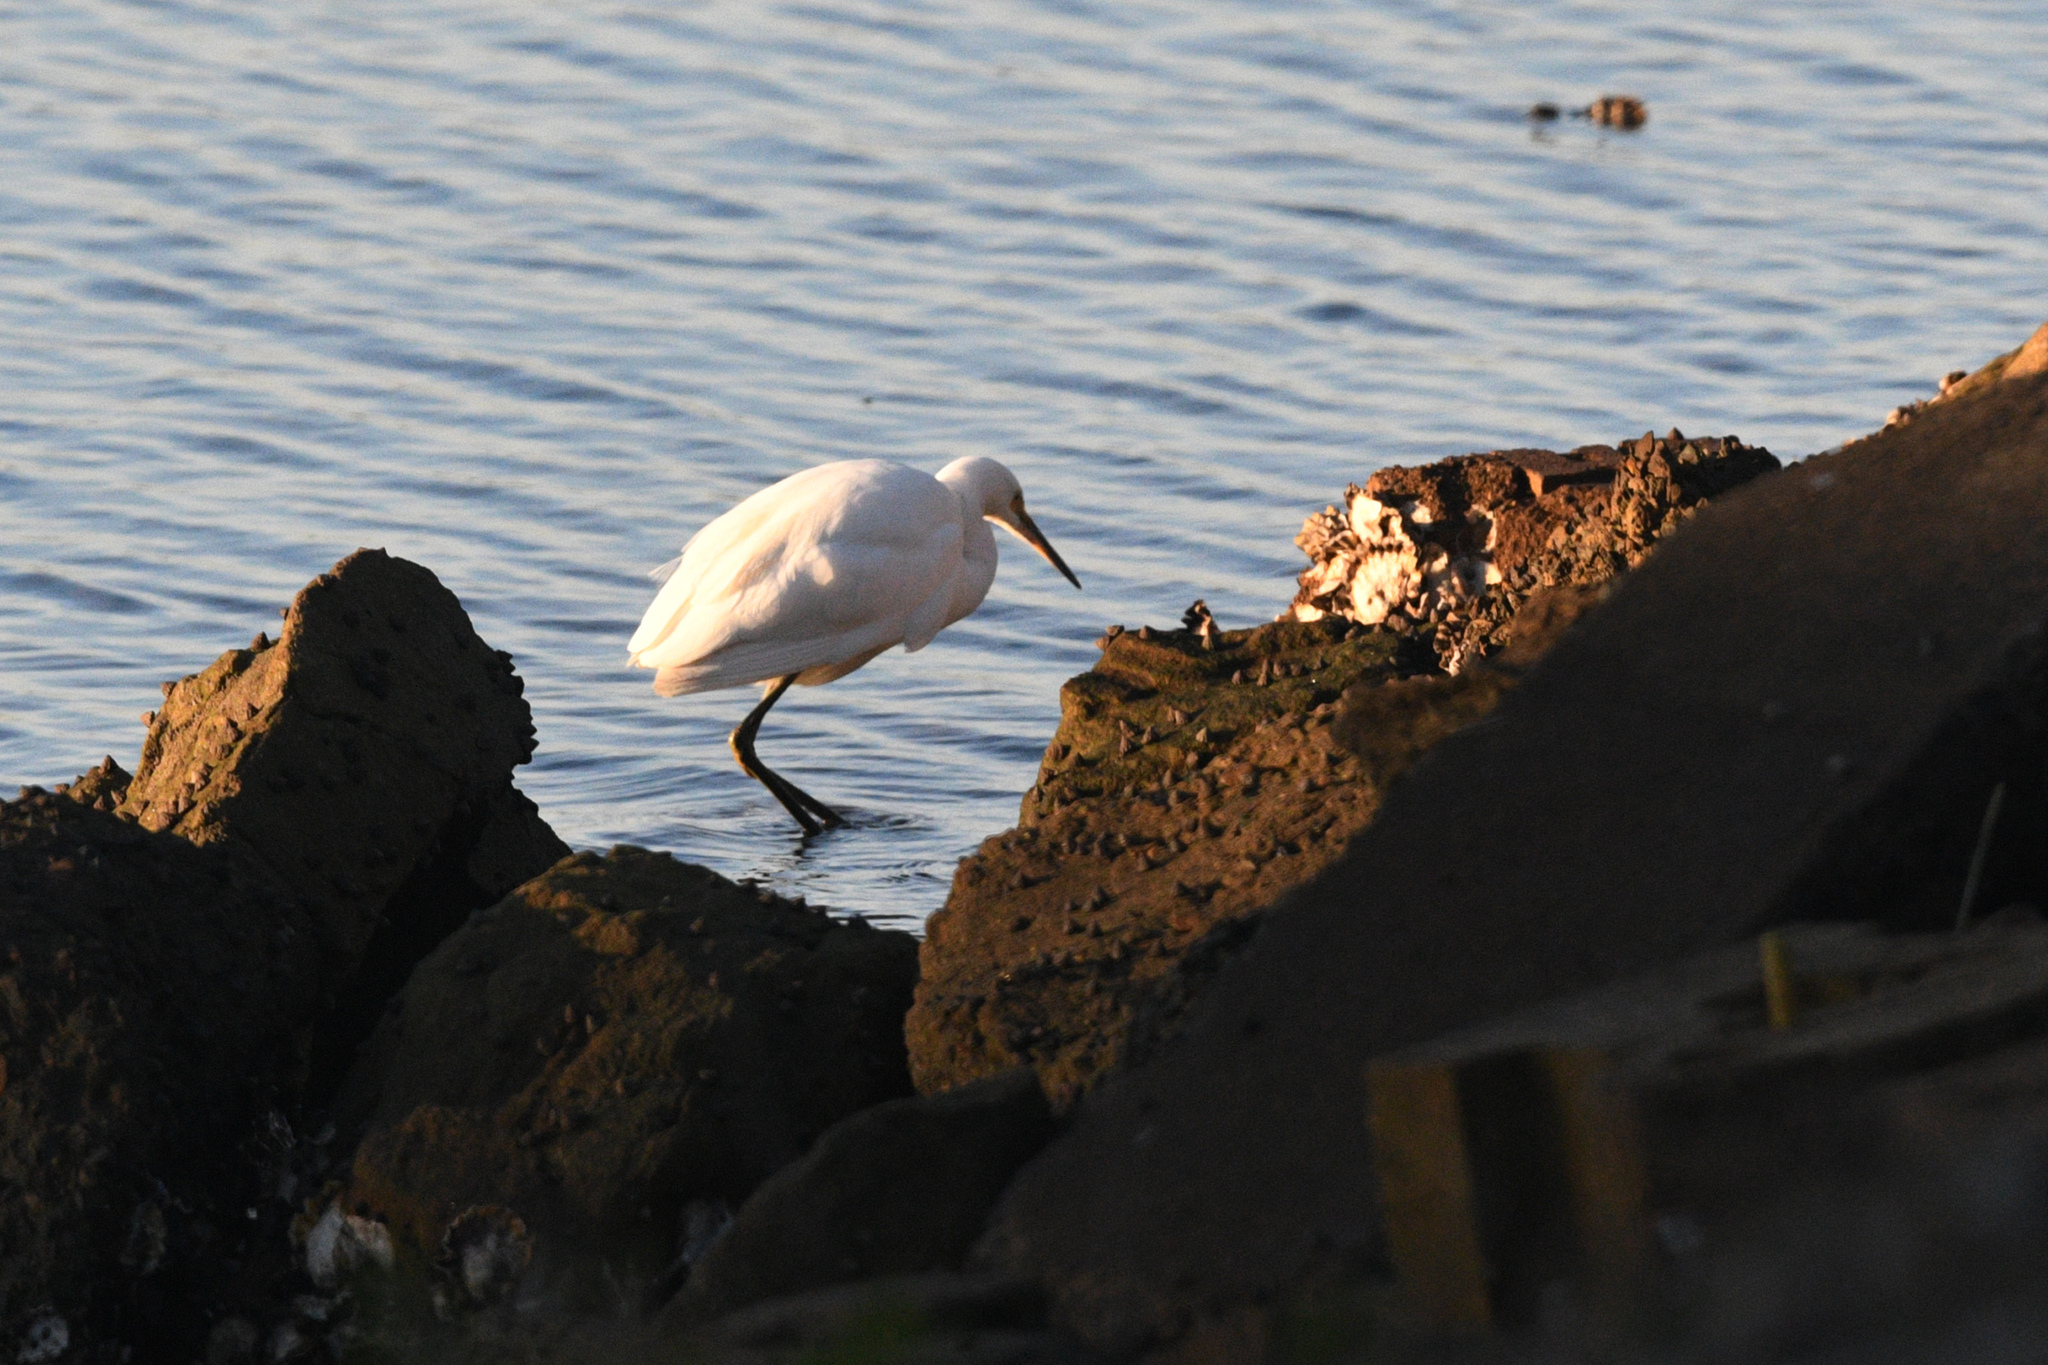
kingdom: Animalia
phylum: Chordata
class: Aves
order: Pelecaniformes
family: Ardeidae
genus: Egretta
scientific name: Egretta garzetta
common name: Little egret
